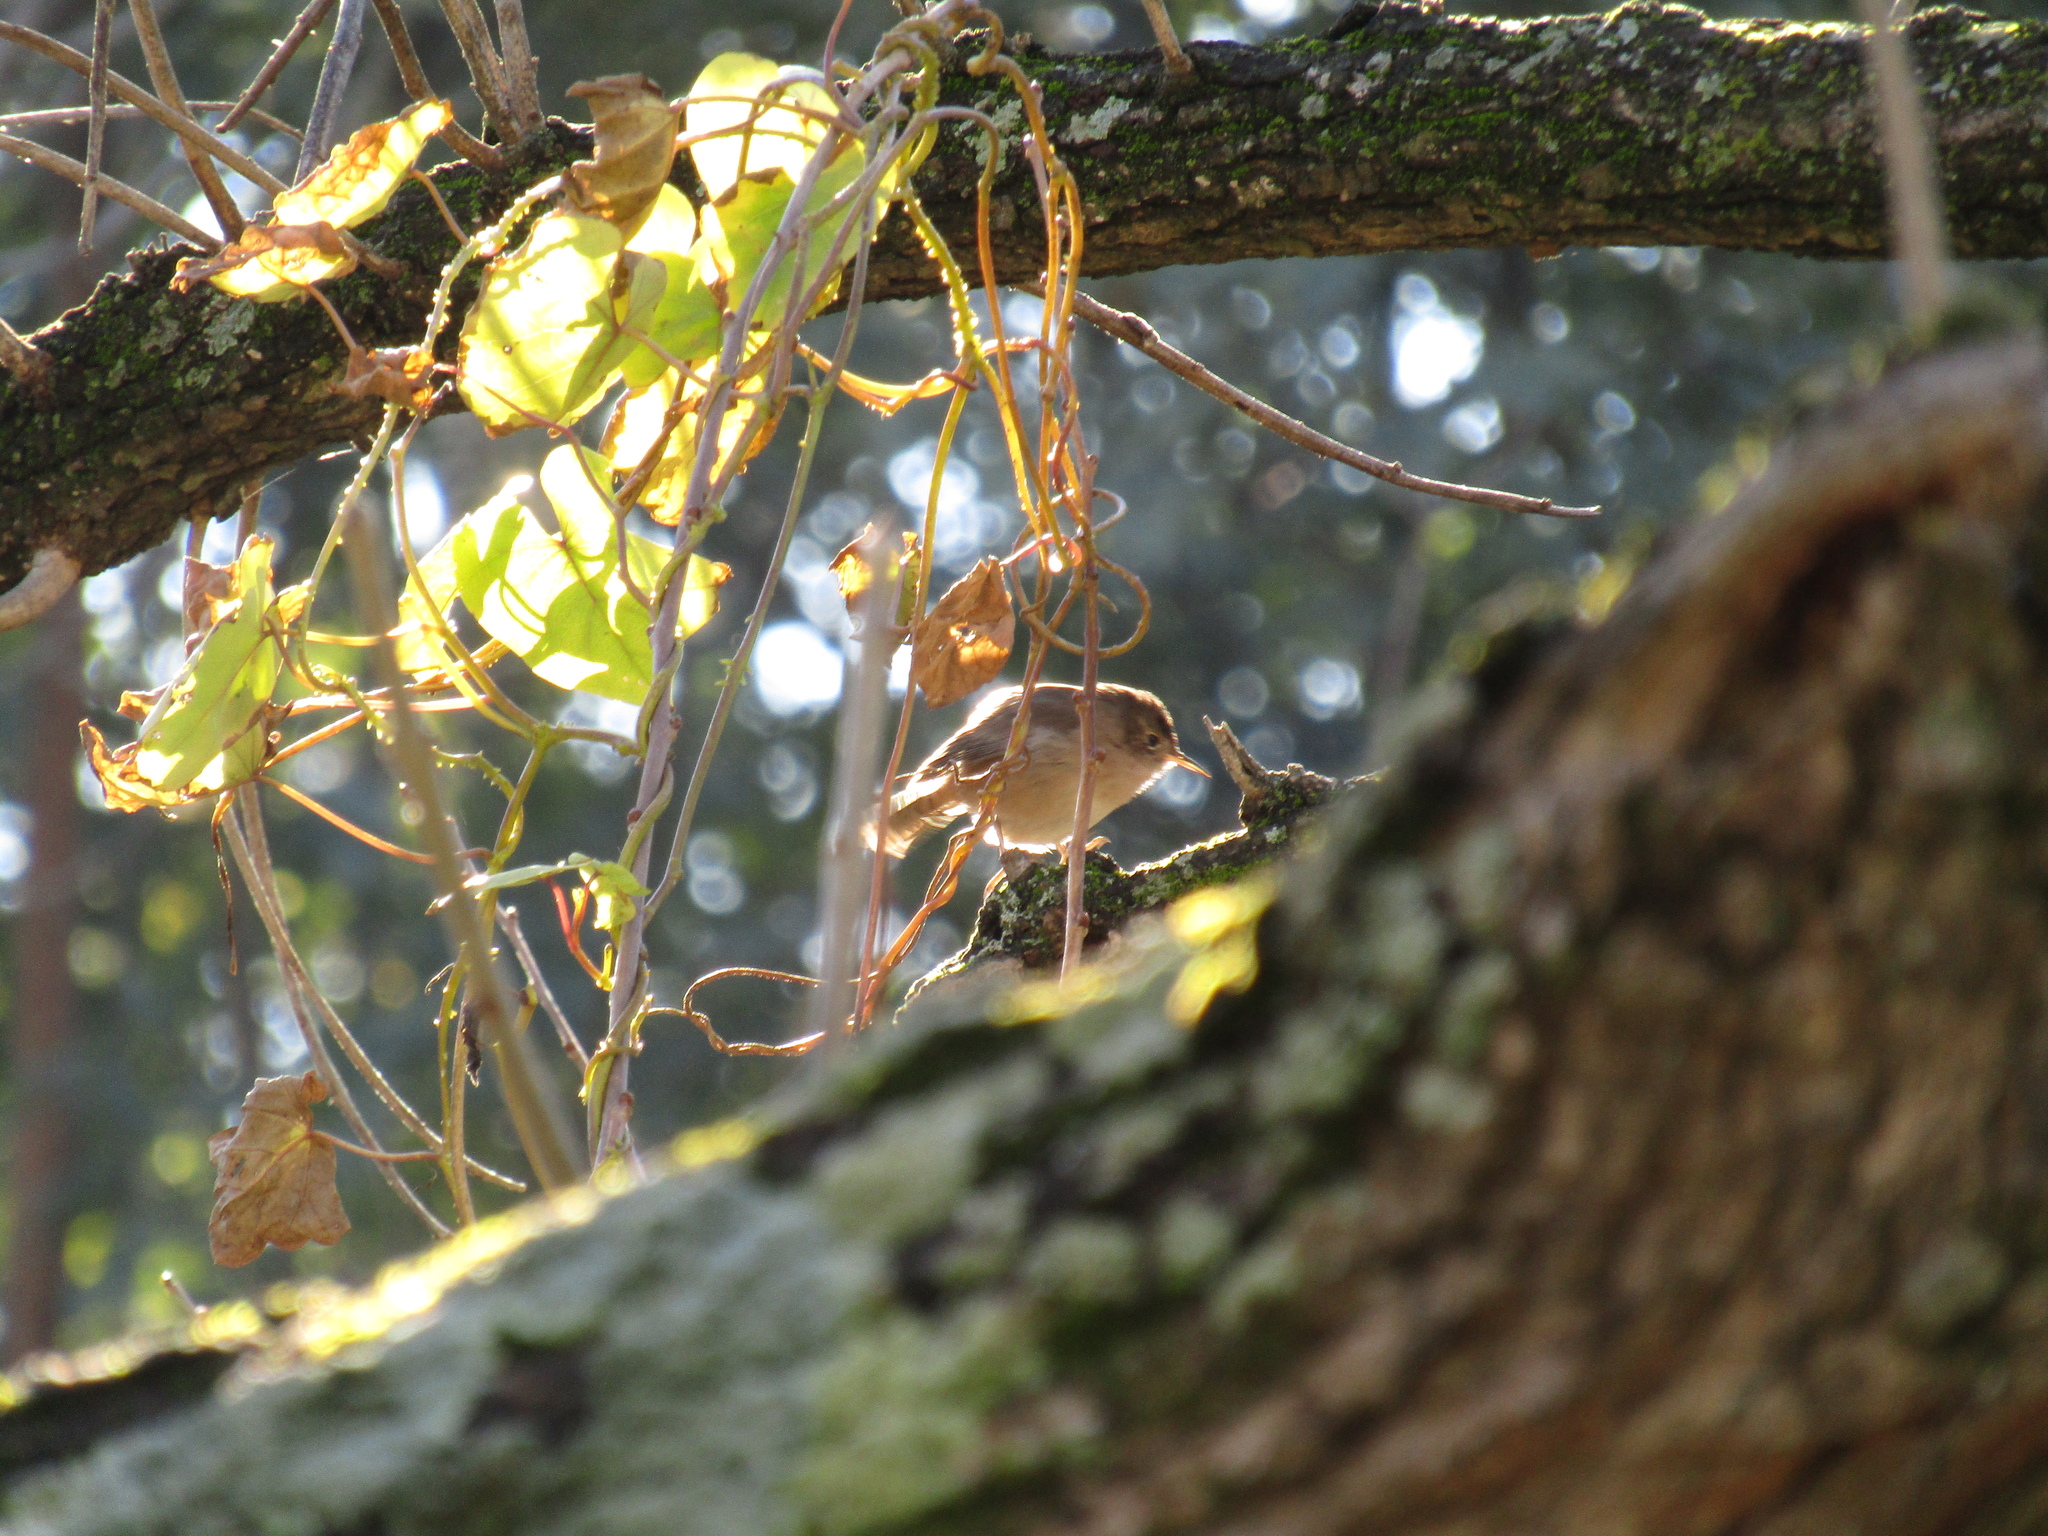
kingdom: Animalia
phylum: Chordata
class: Aves
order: Passeriformes
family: Troglodytidae
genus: Troglodytes
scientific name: Troglodytes aedon
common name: House wren
